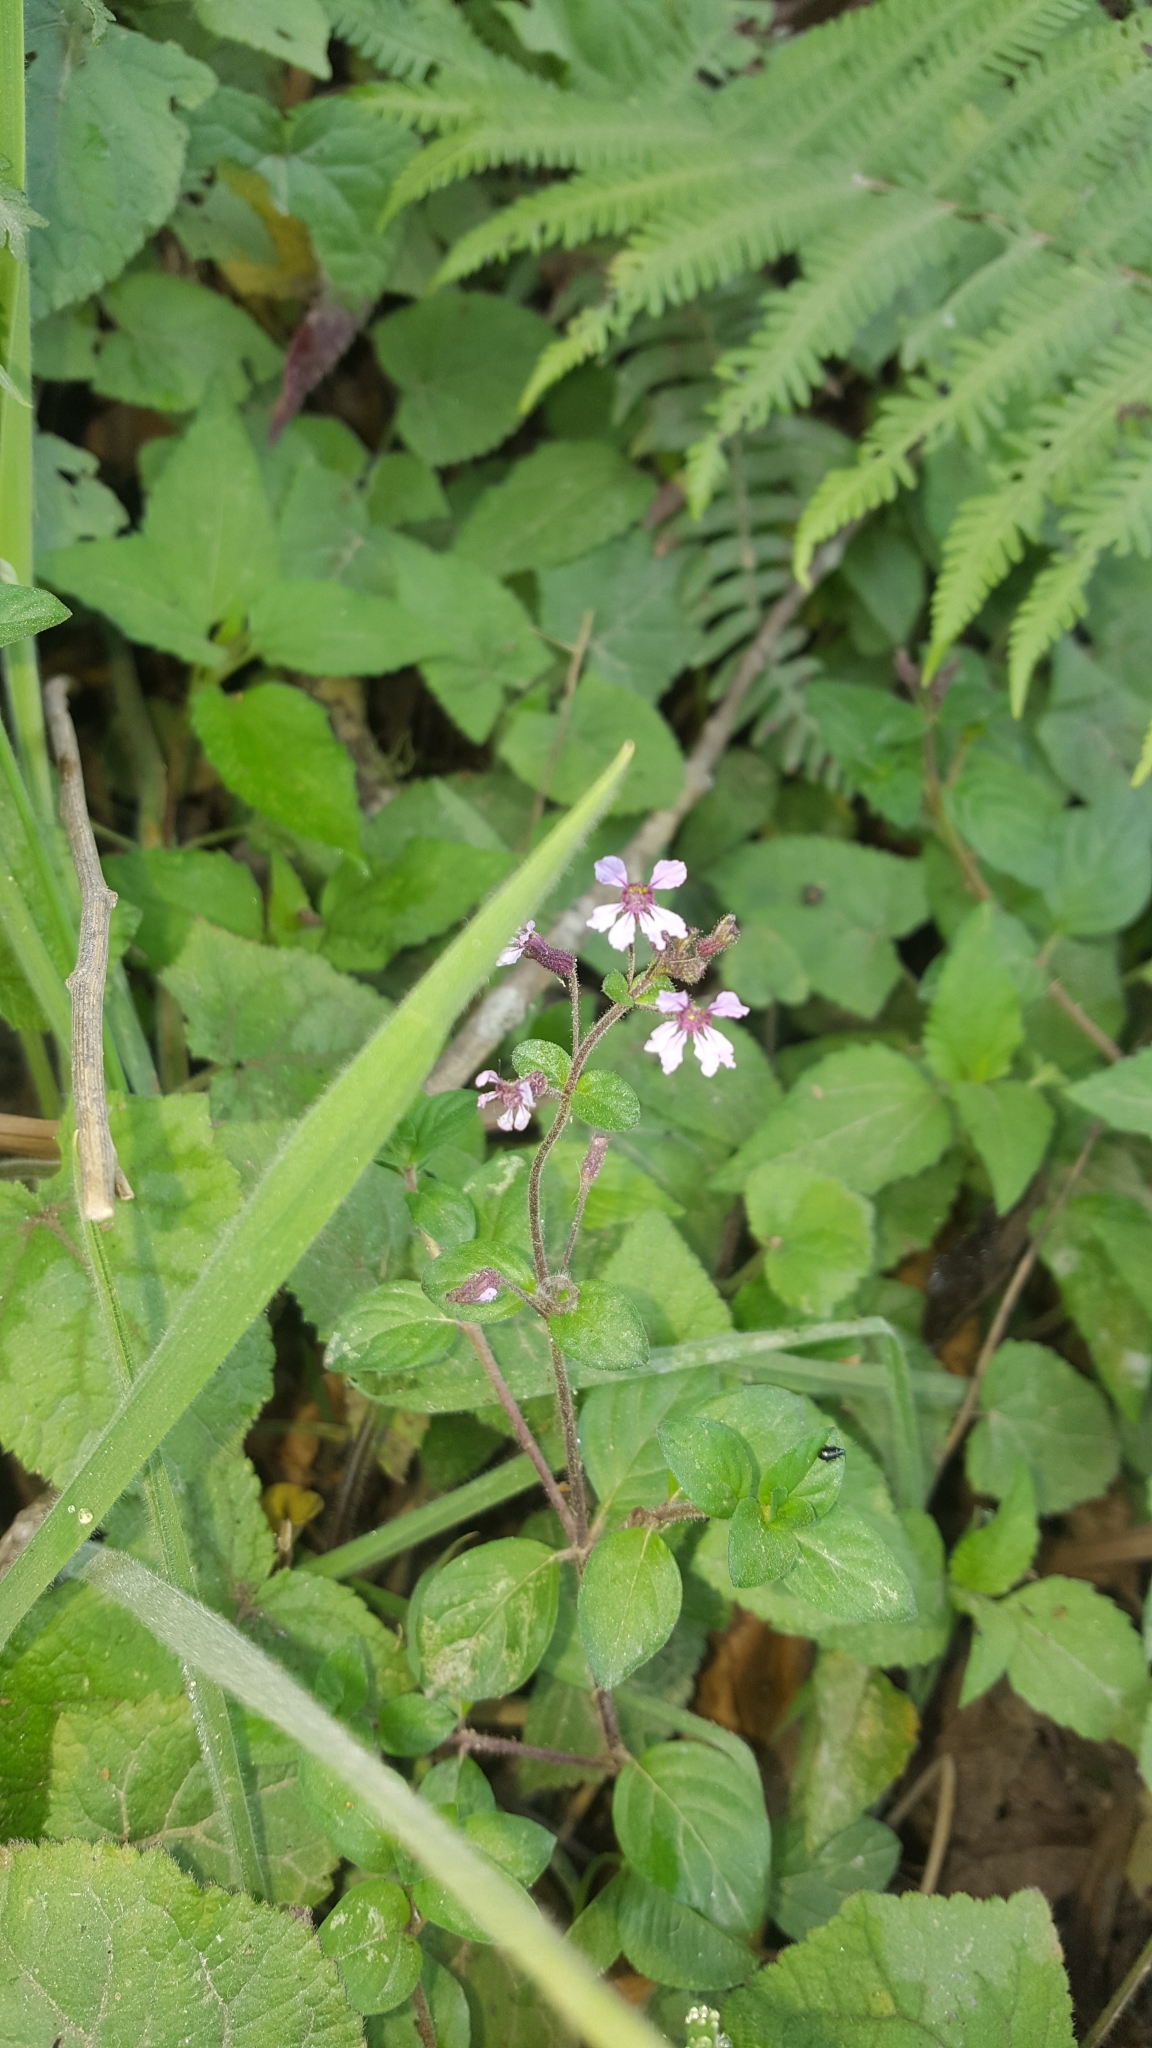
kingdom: Plantae
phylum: Tracheophyta
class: Magnoliopsida
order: Myrtales
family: Lythraceae
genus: Cuphea
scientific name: Cuphea carthagenensis
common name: Colombian waxweed
